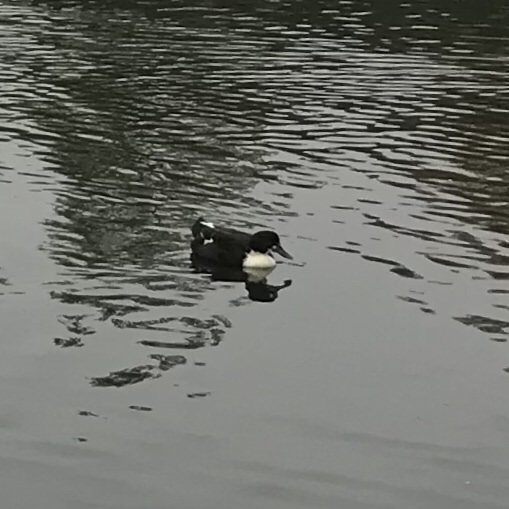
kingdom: Animalia
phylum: Chordata
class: Aves
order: Anseriformes
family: Anatidae
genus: Anas
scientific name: Anas platyrhynchos
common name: Mallard
